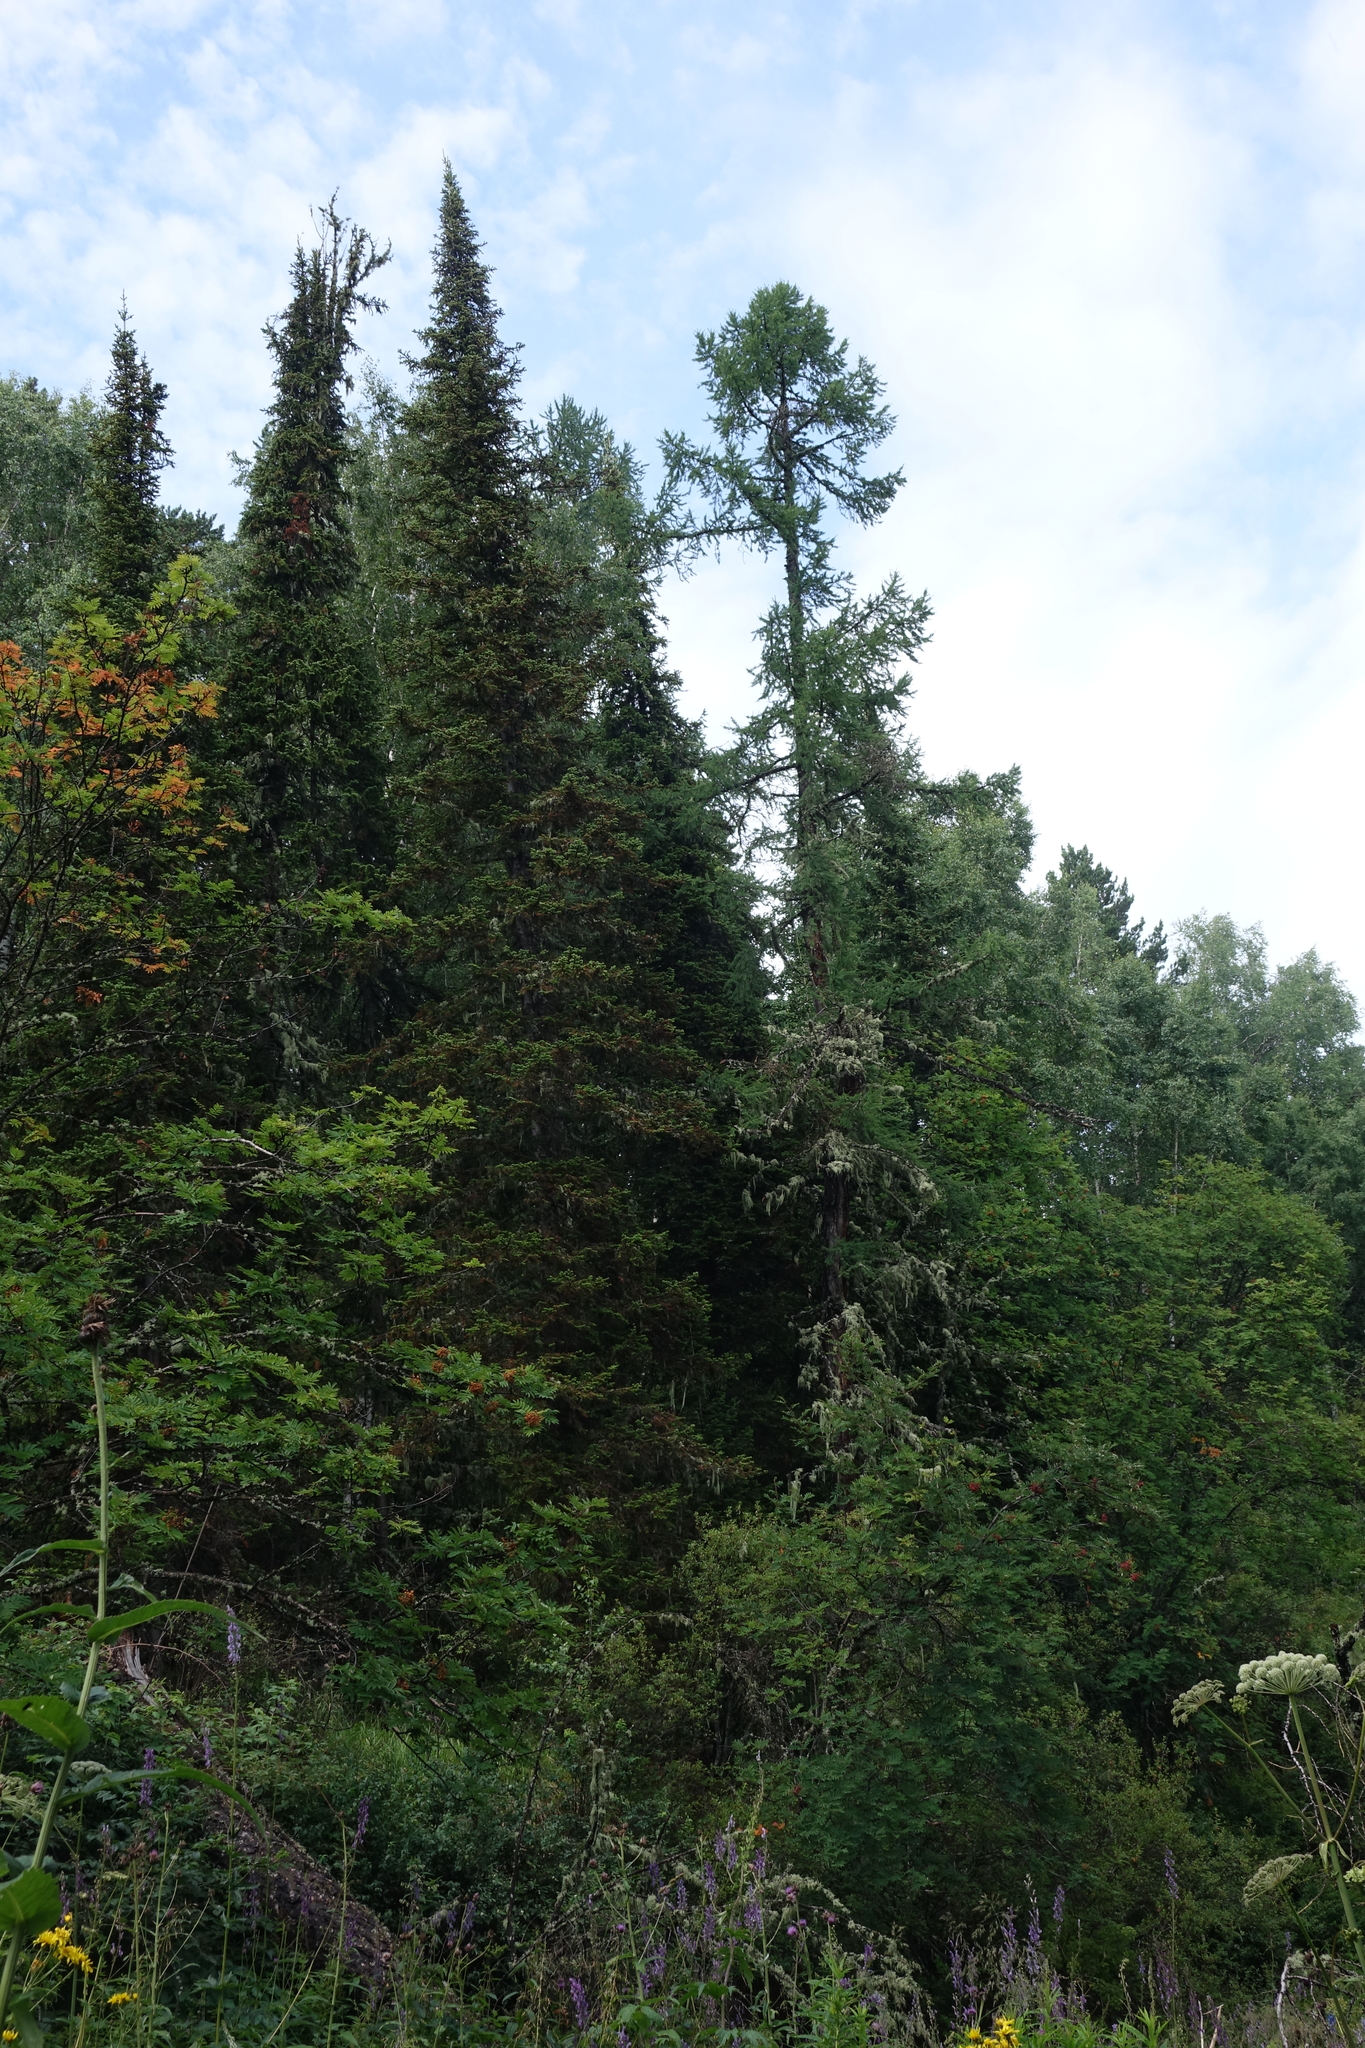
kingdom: Plantae
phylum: Tracheophyta
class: Pinopsida
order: Pinales
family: Pinaceae
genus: Abies
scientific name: Abies sibirica
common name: Siberian fir
